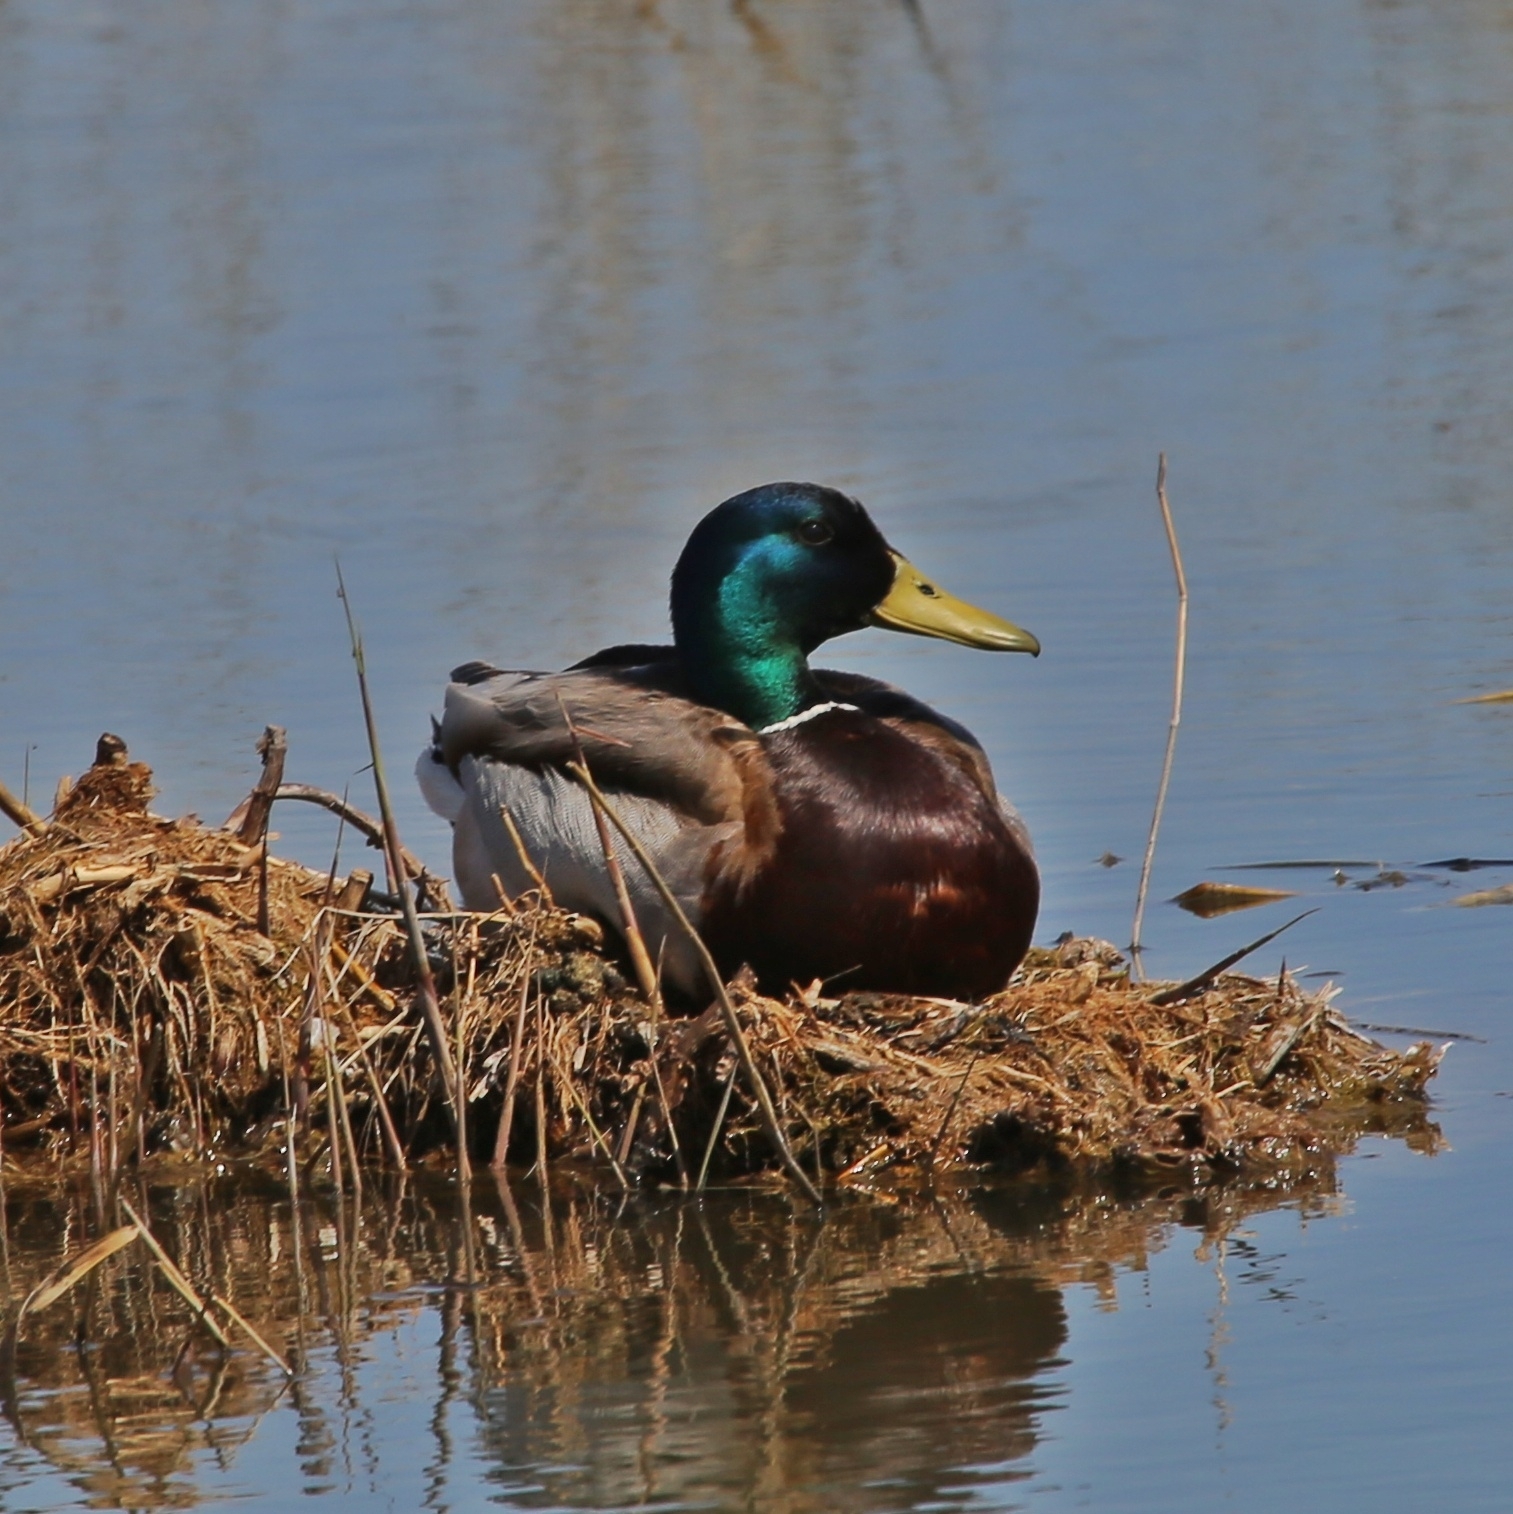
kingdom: Animalia
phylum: Chordata
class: Aves
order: Anseriformes
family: Anatidae
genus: Anas
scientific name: Anas platyrhynchos
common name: Mallard
